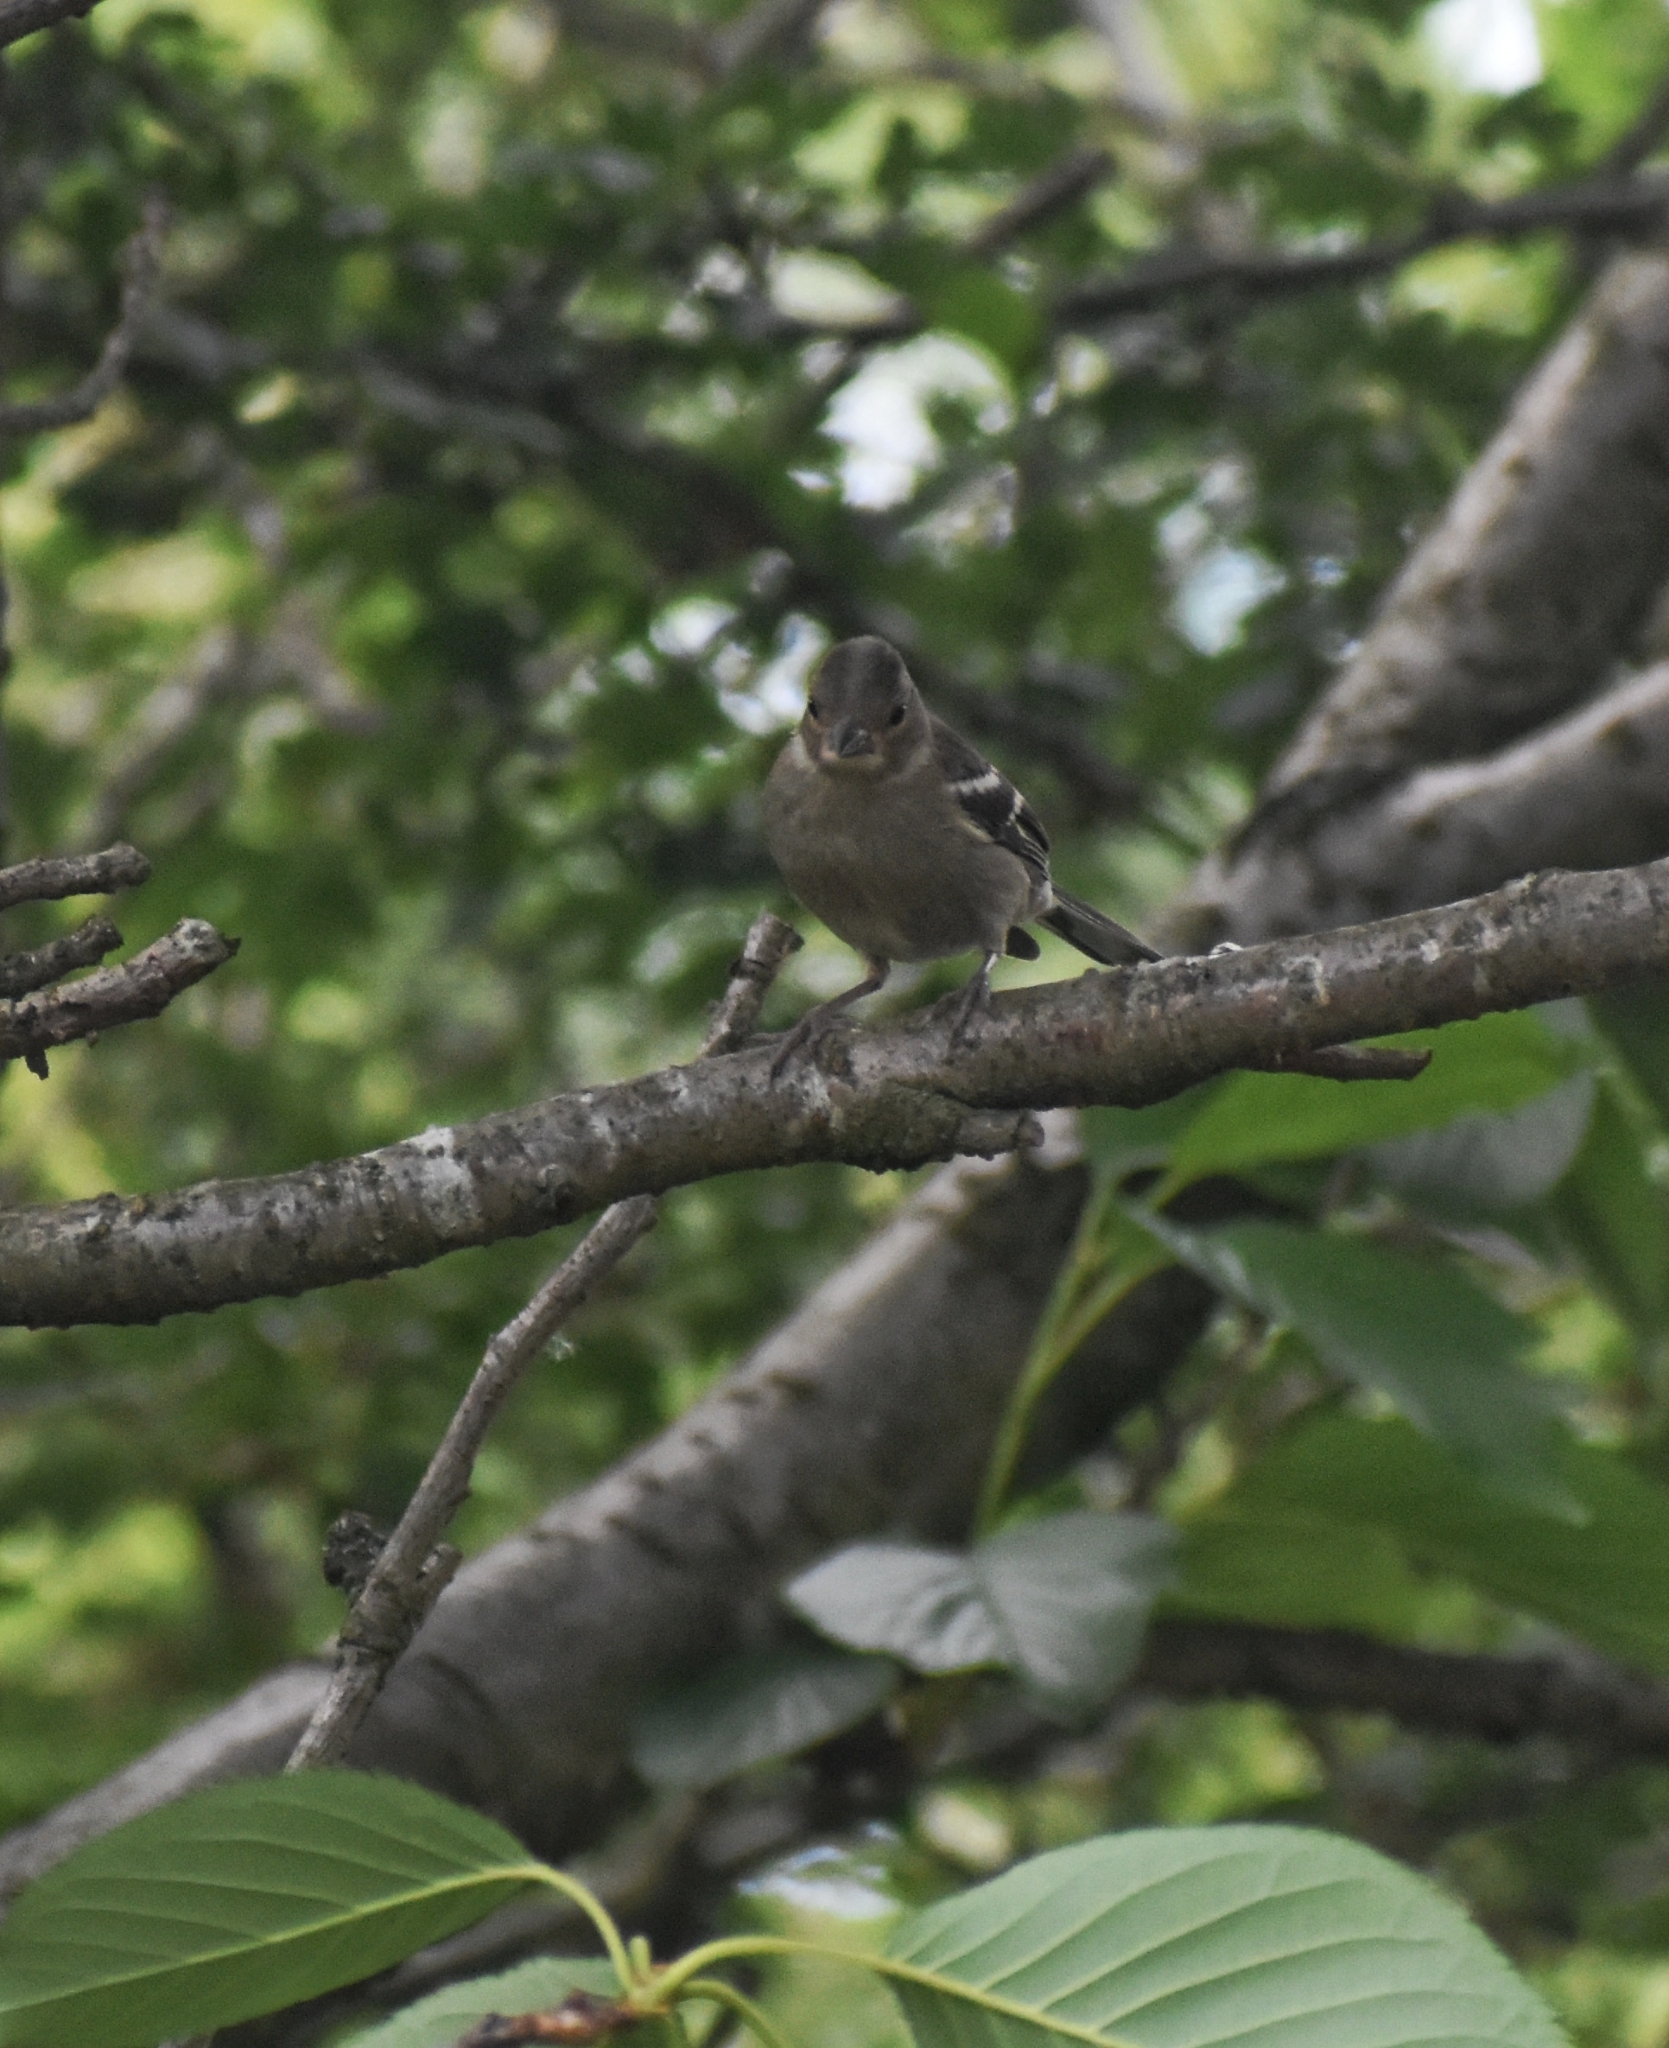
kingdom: Animalia
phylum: Chordata
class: Aves
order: Passeriformes
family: Fringillidae
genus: Fringilla
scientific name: Fringilla coelebs
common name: Common chaffinch
